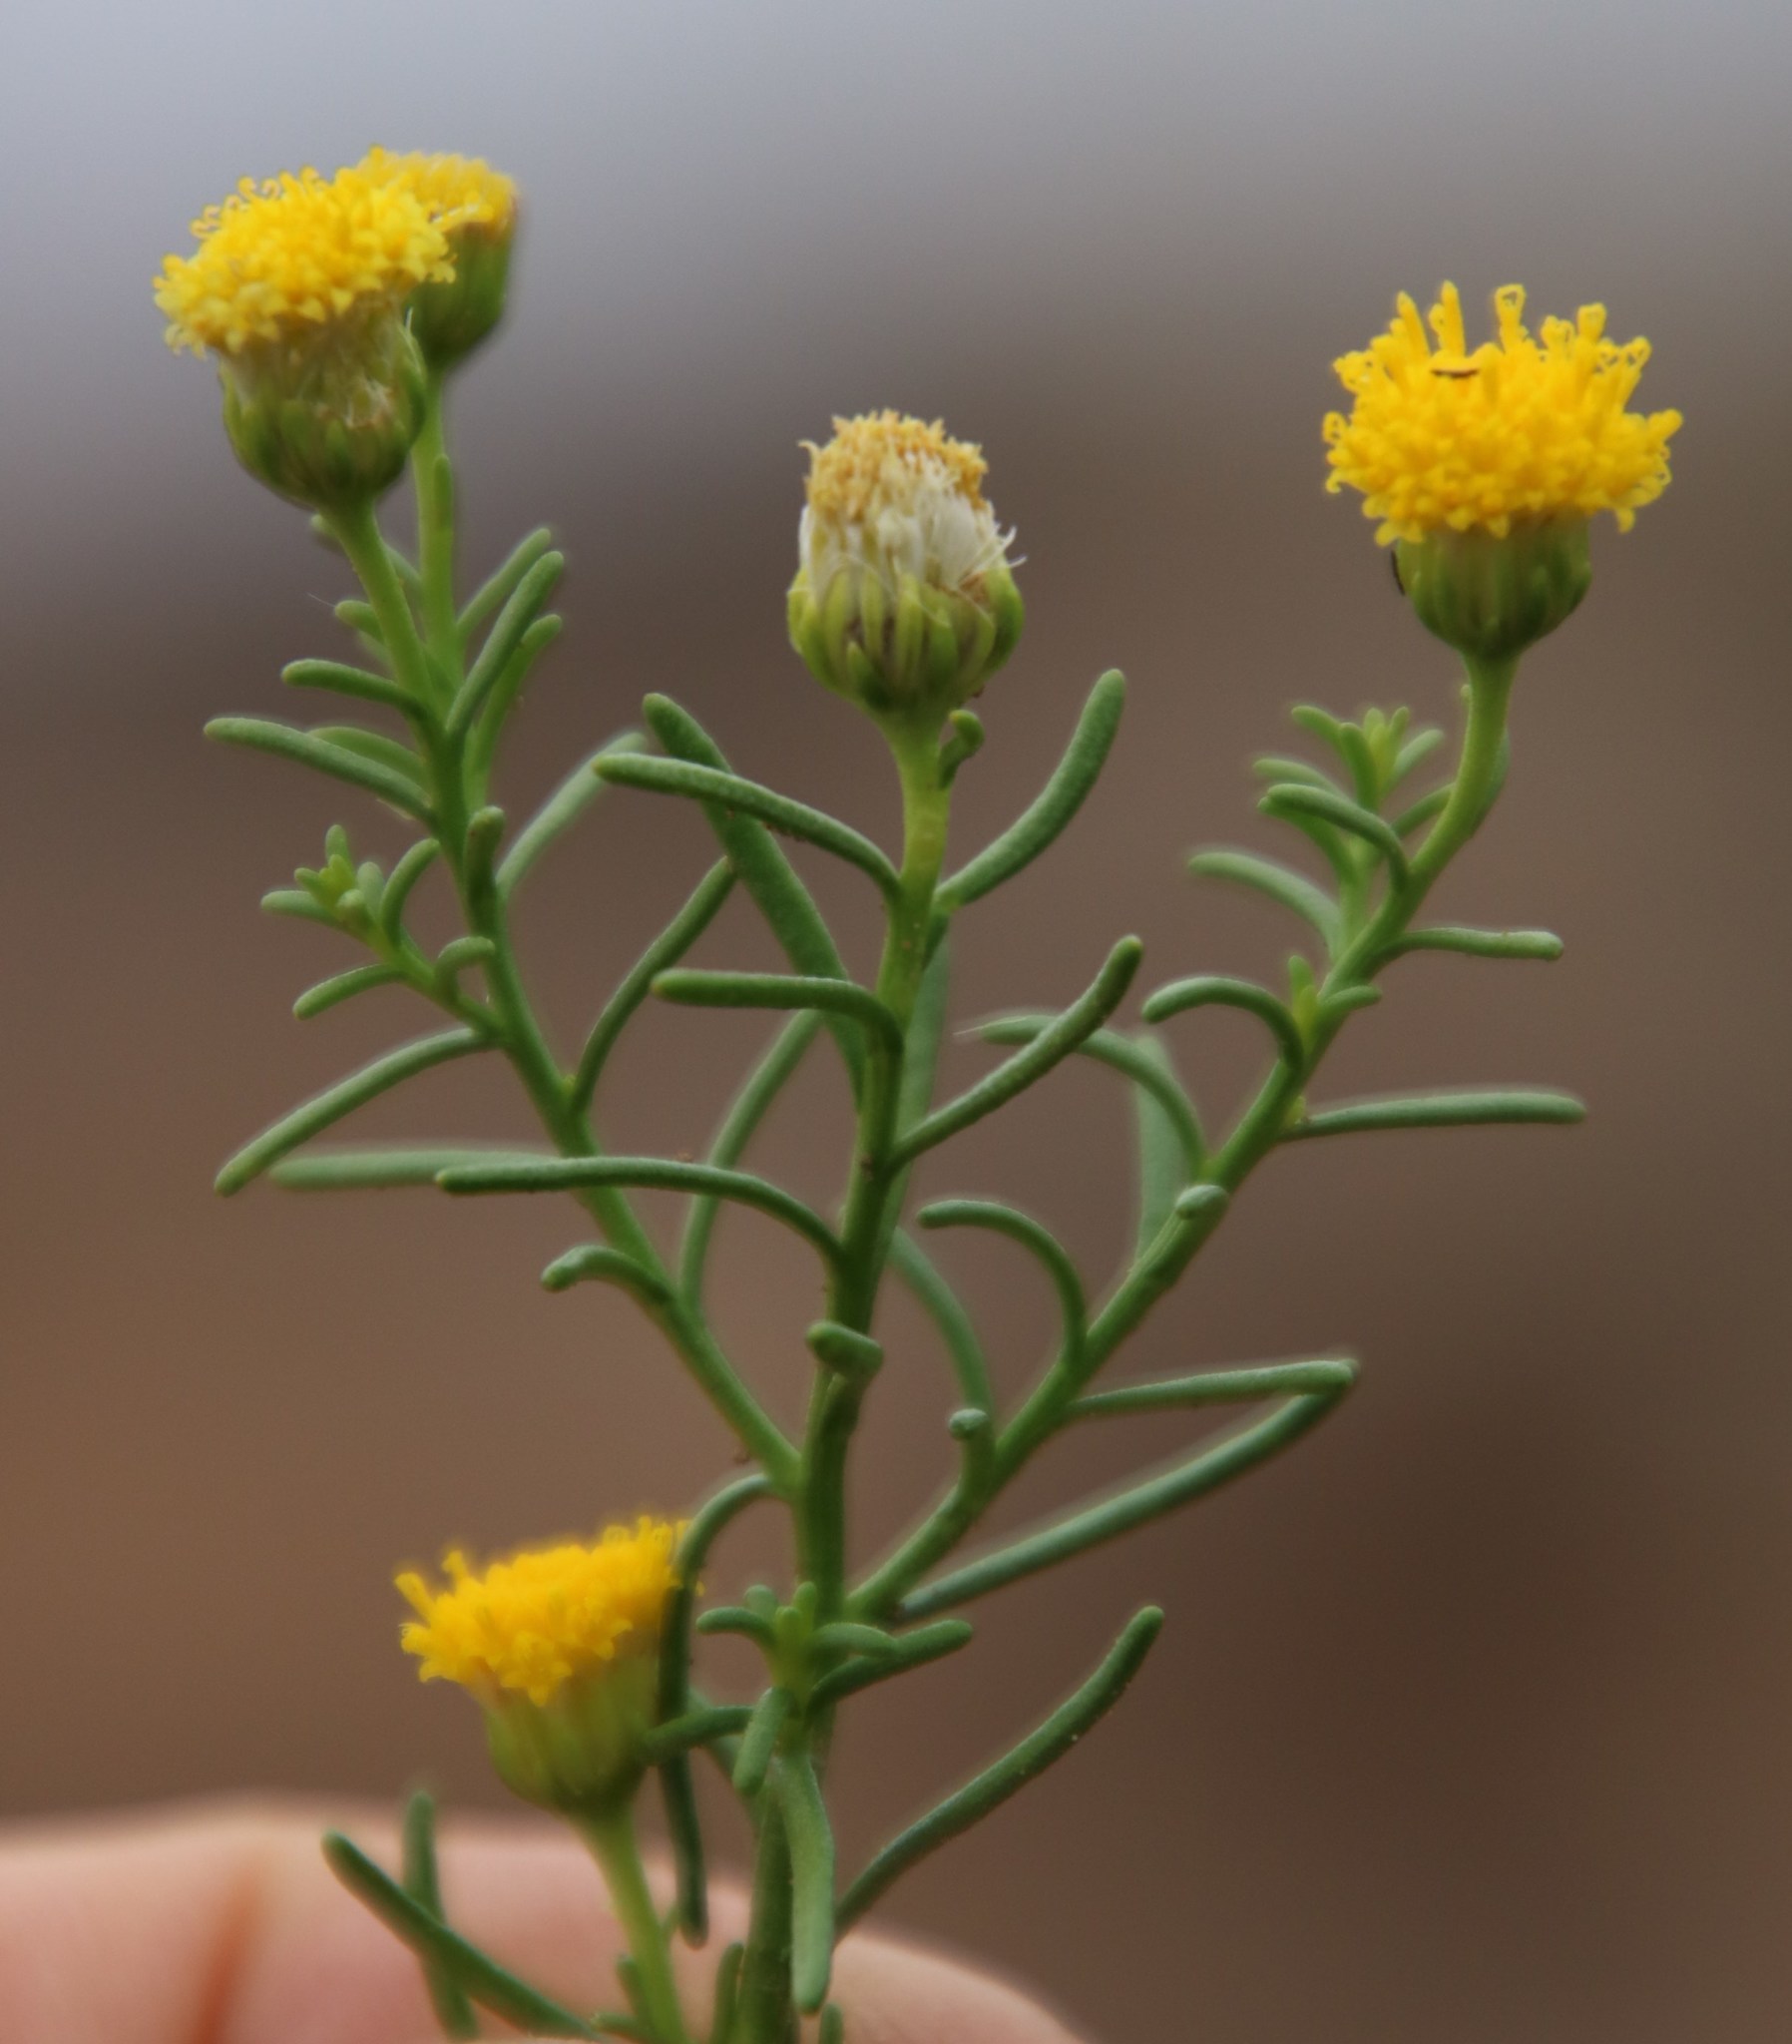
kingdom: Plantae
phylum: Tracheophyta
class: Magnoliopsida
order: Asterales
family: Asteraceae
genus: Chrysocoma
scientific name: Chrysocoma ciliata
